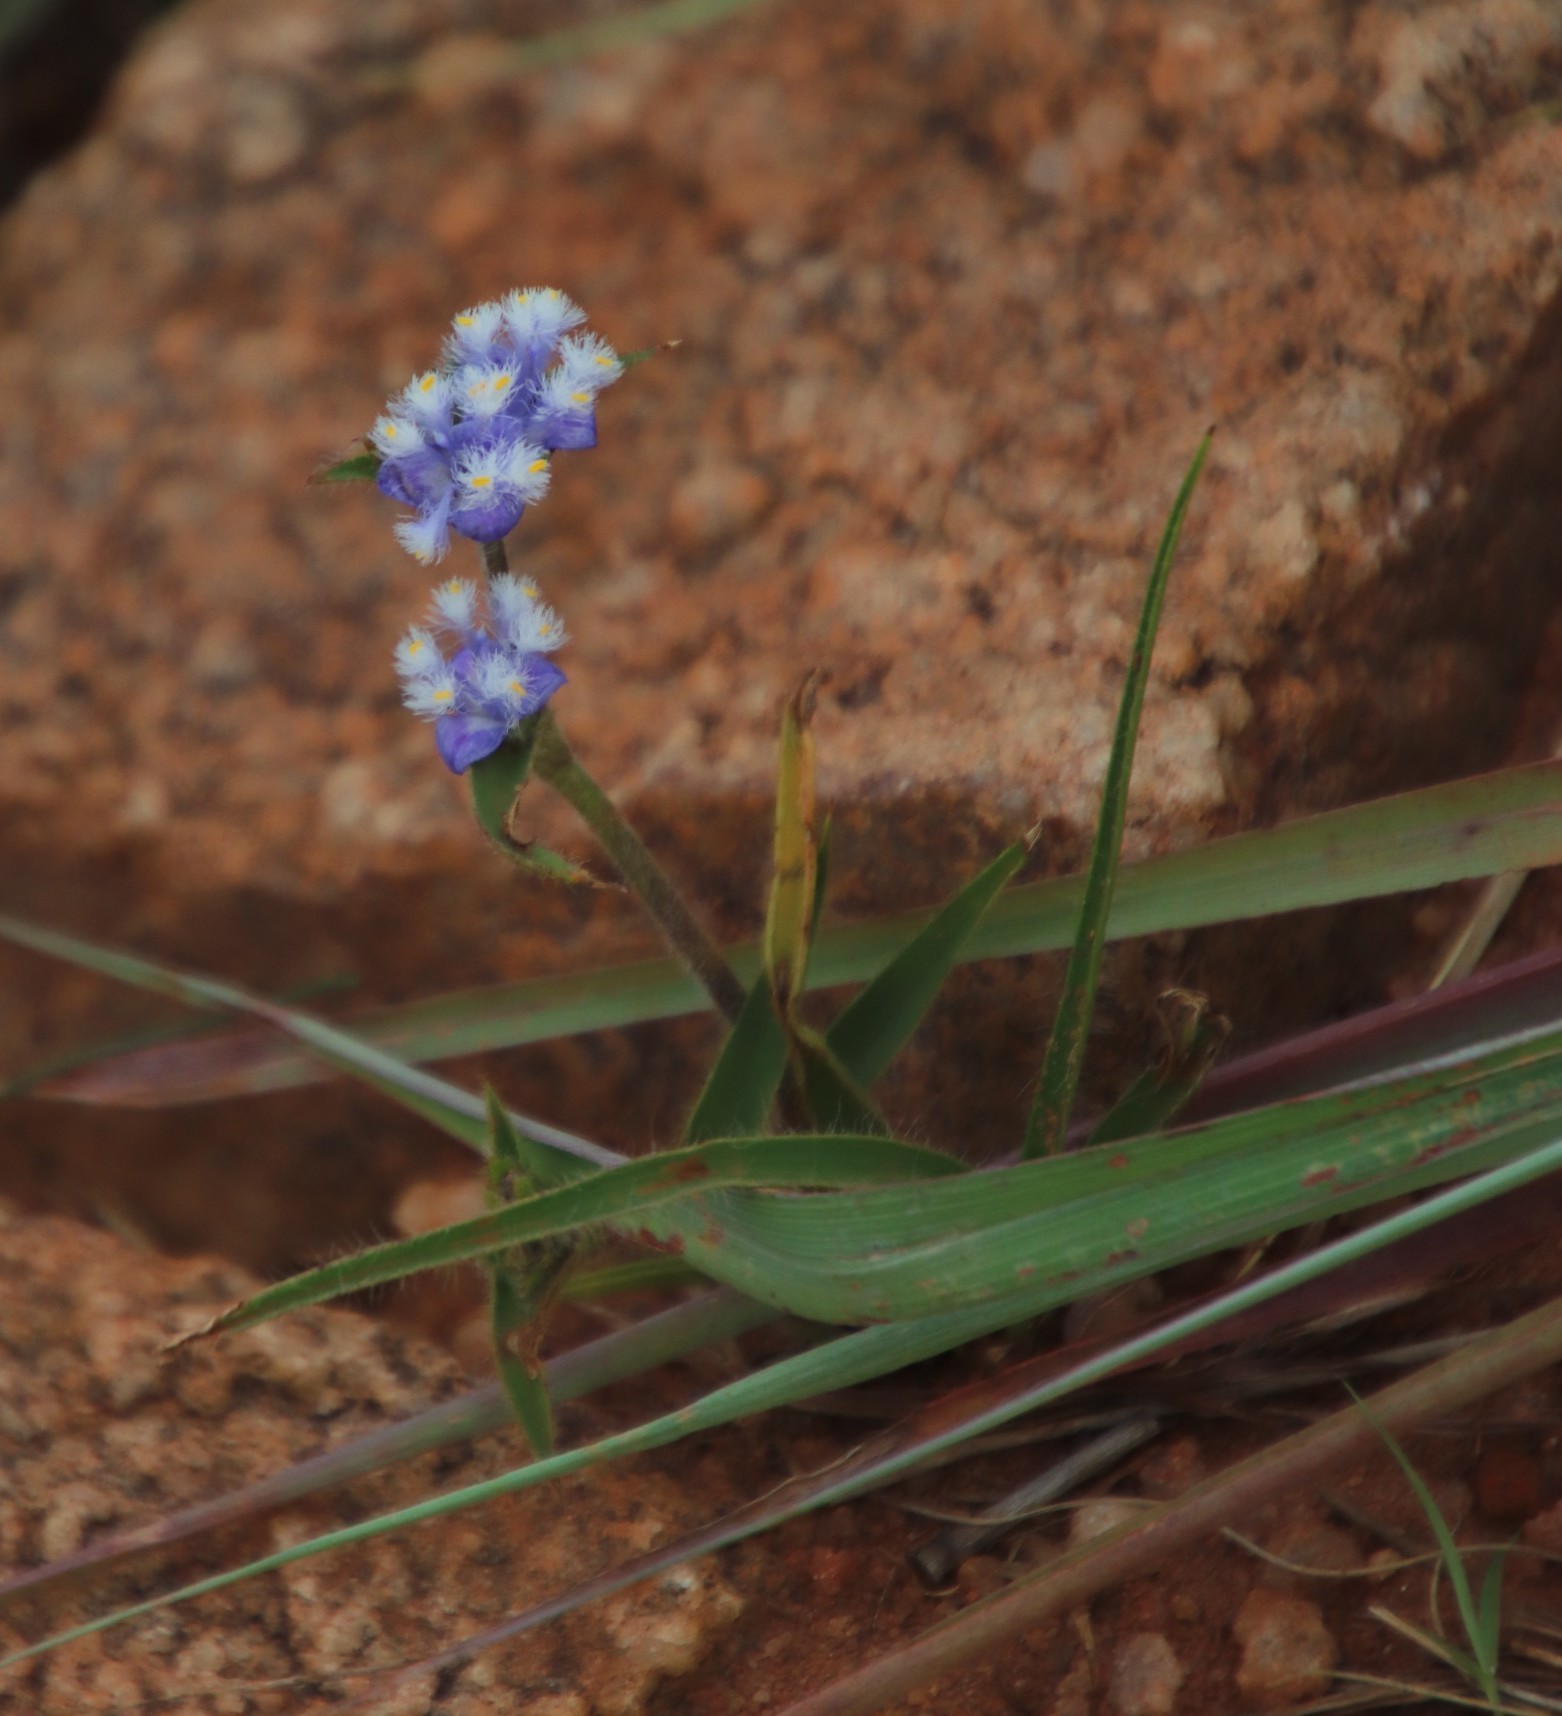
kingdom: Plantae
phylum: Tracheophyta
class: Liliopsida
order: Commelinales
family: Commelinaceae
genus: Cyanotis
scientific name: Cyanotis speciosa
